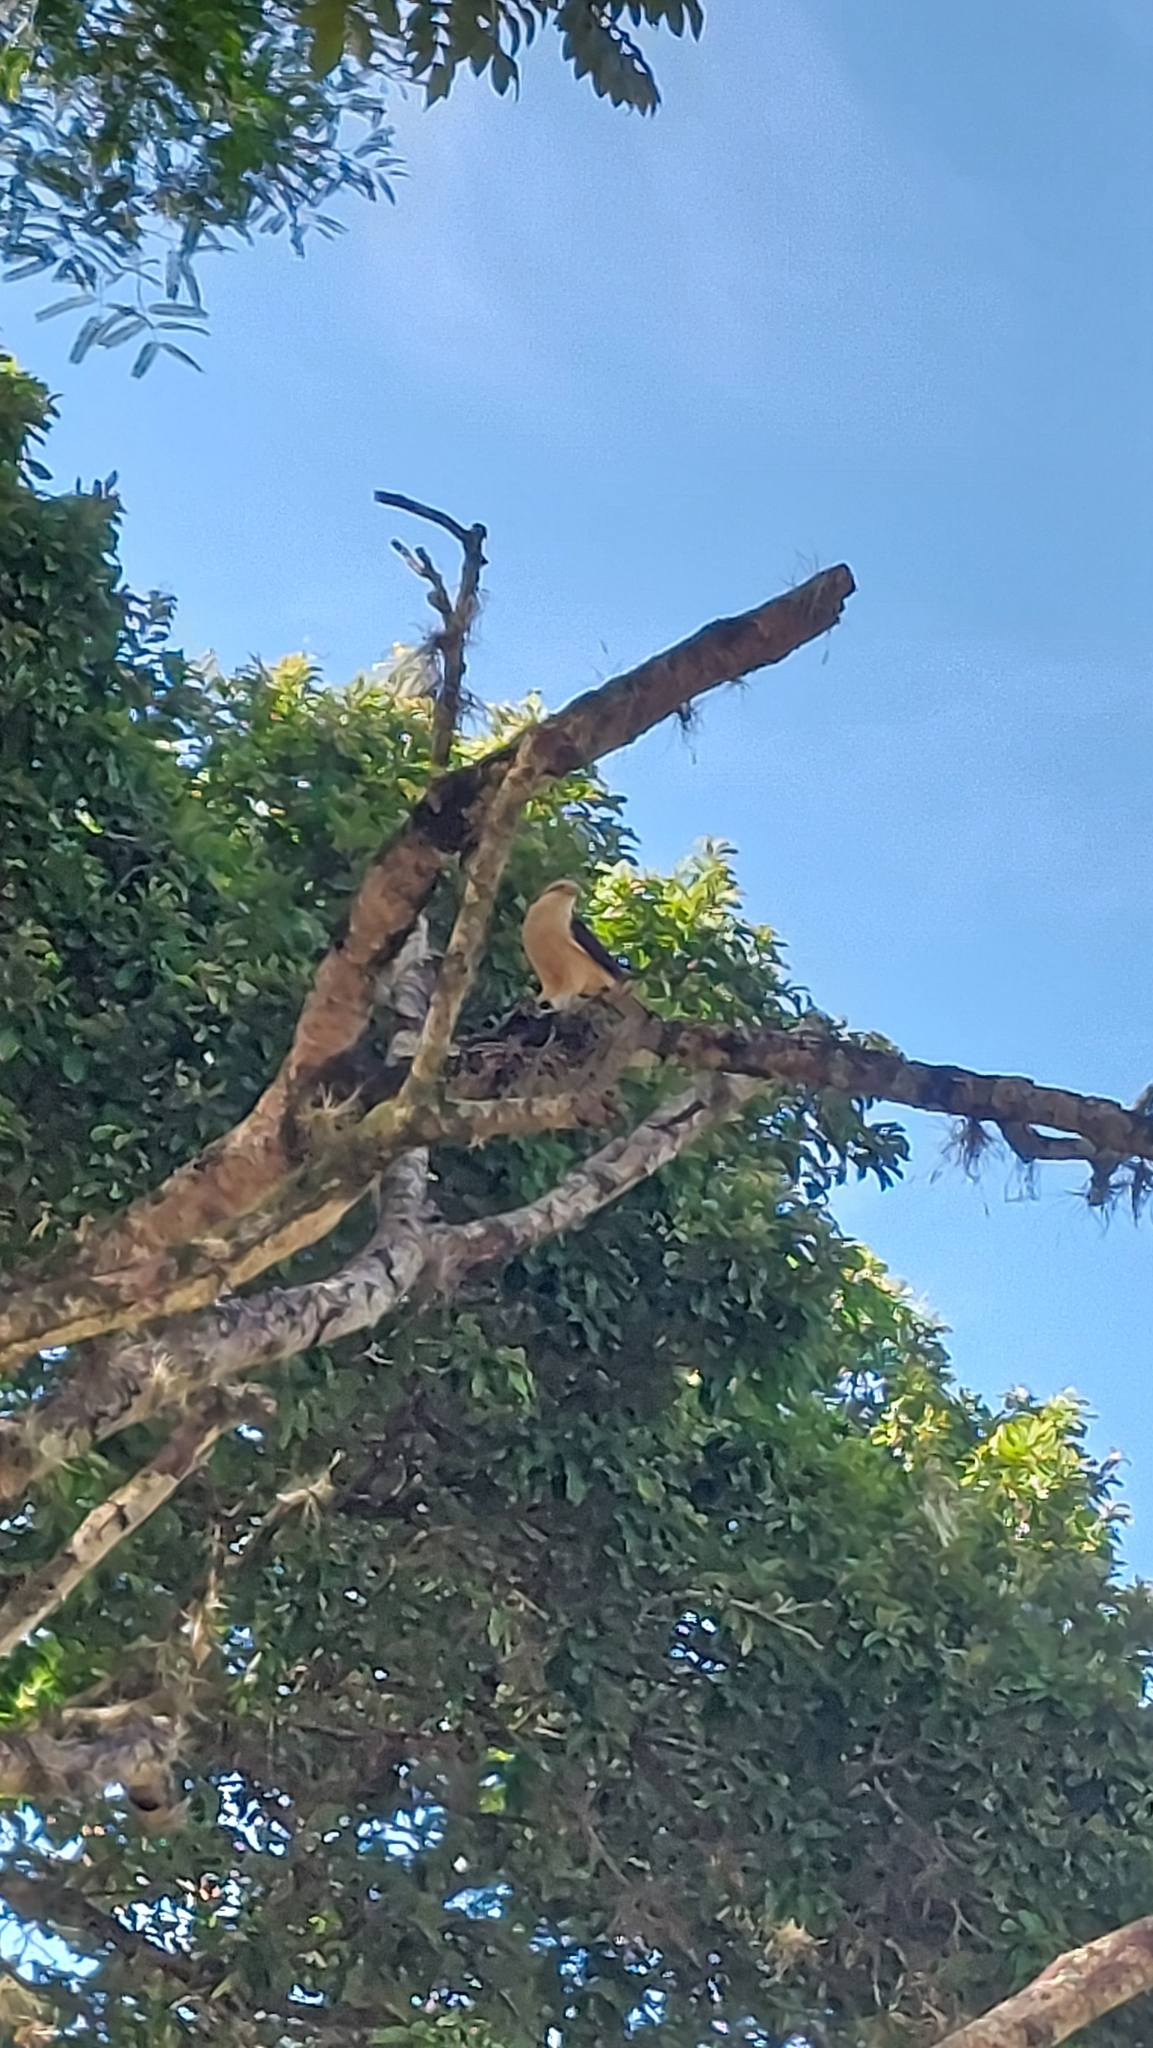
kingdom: Animalia
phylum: Chordata
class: Aves
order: Falconiformes
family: Falconidae
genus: Daptrius
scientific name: Daptrius
